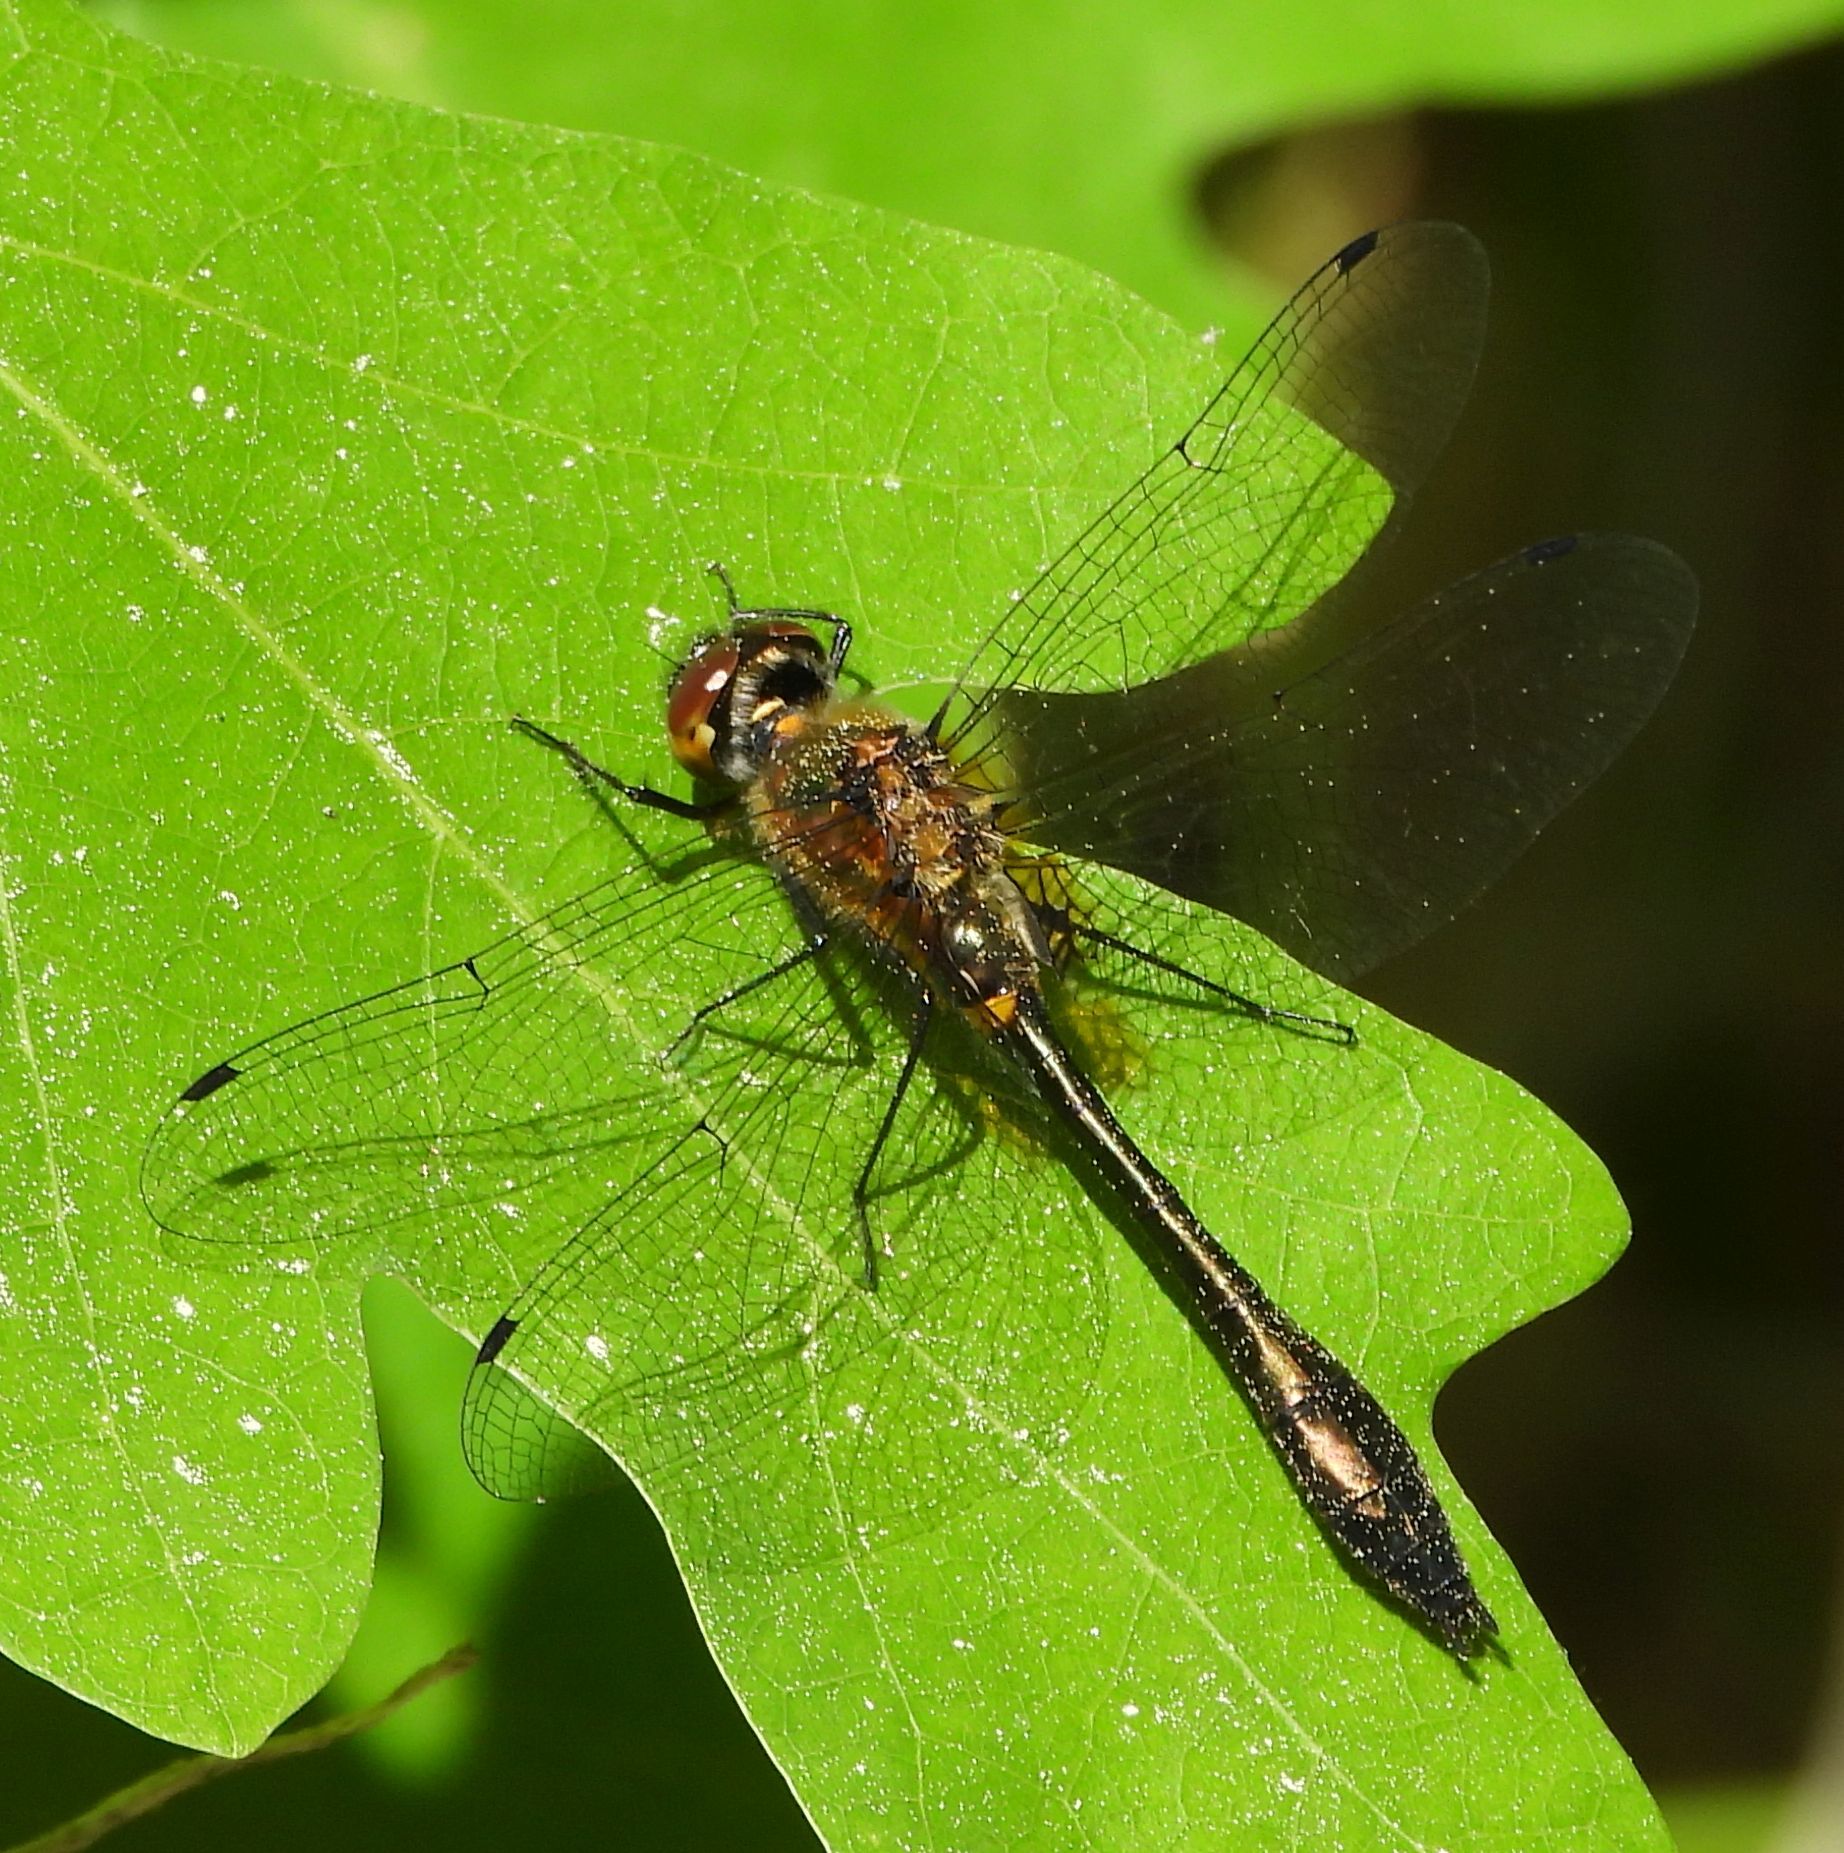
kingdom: Animalia
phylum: Arthropoda
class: Insecta
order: Odonata
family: Corduliidae
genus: Dorocordulia
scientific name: Dorocordulia libera
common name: Racket-tailed emerald
